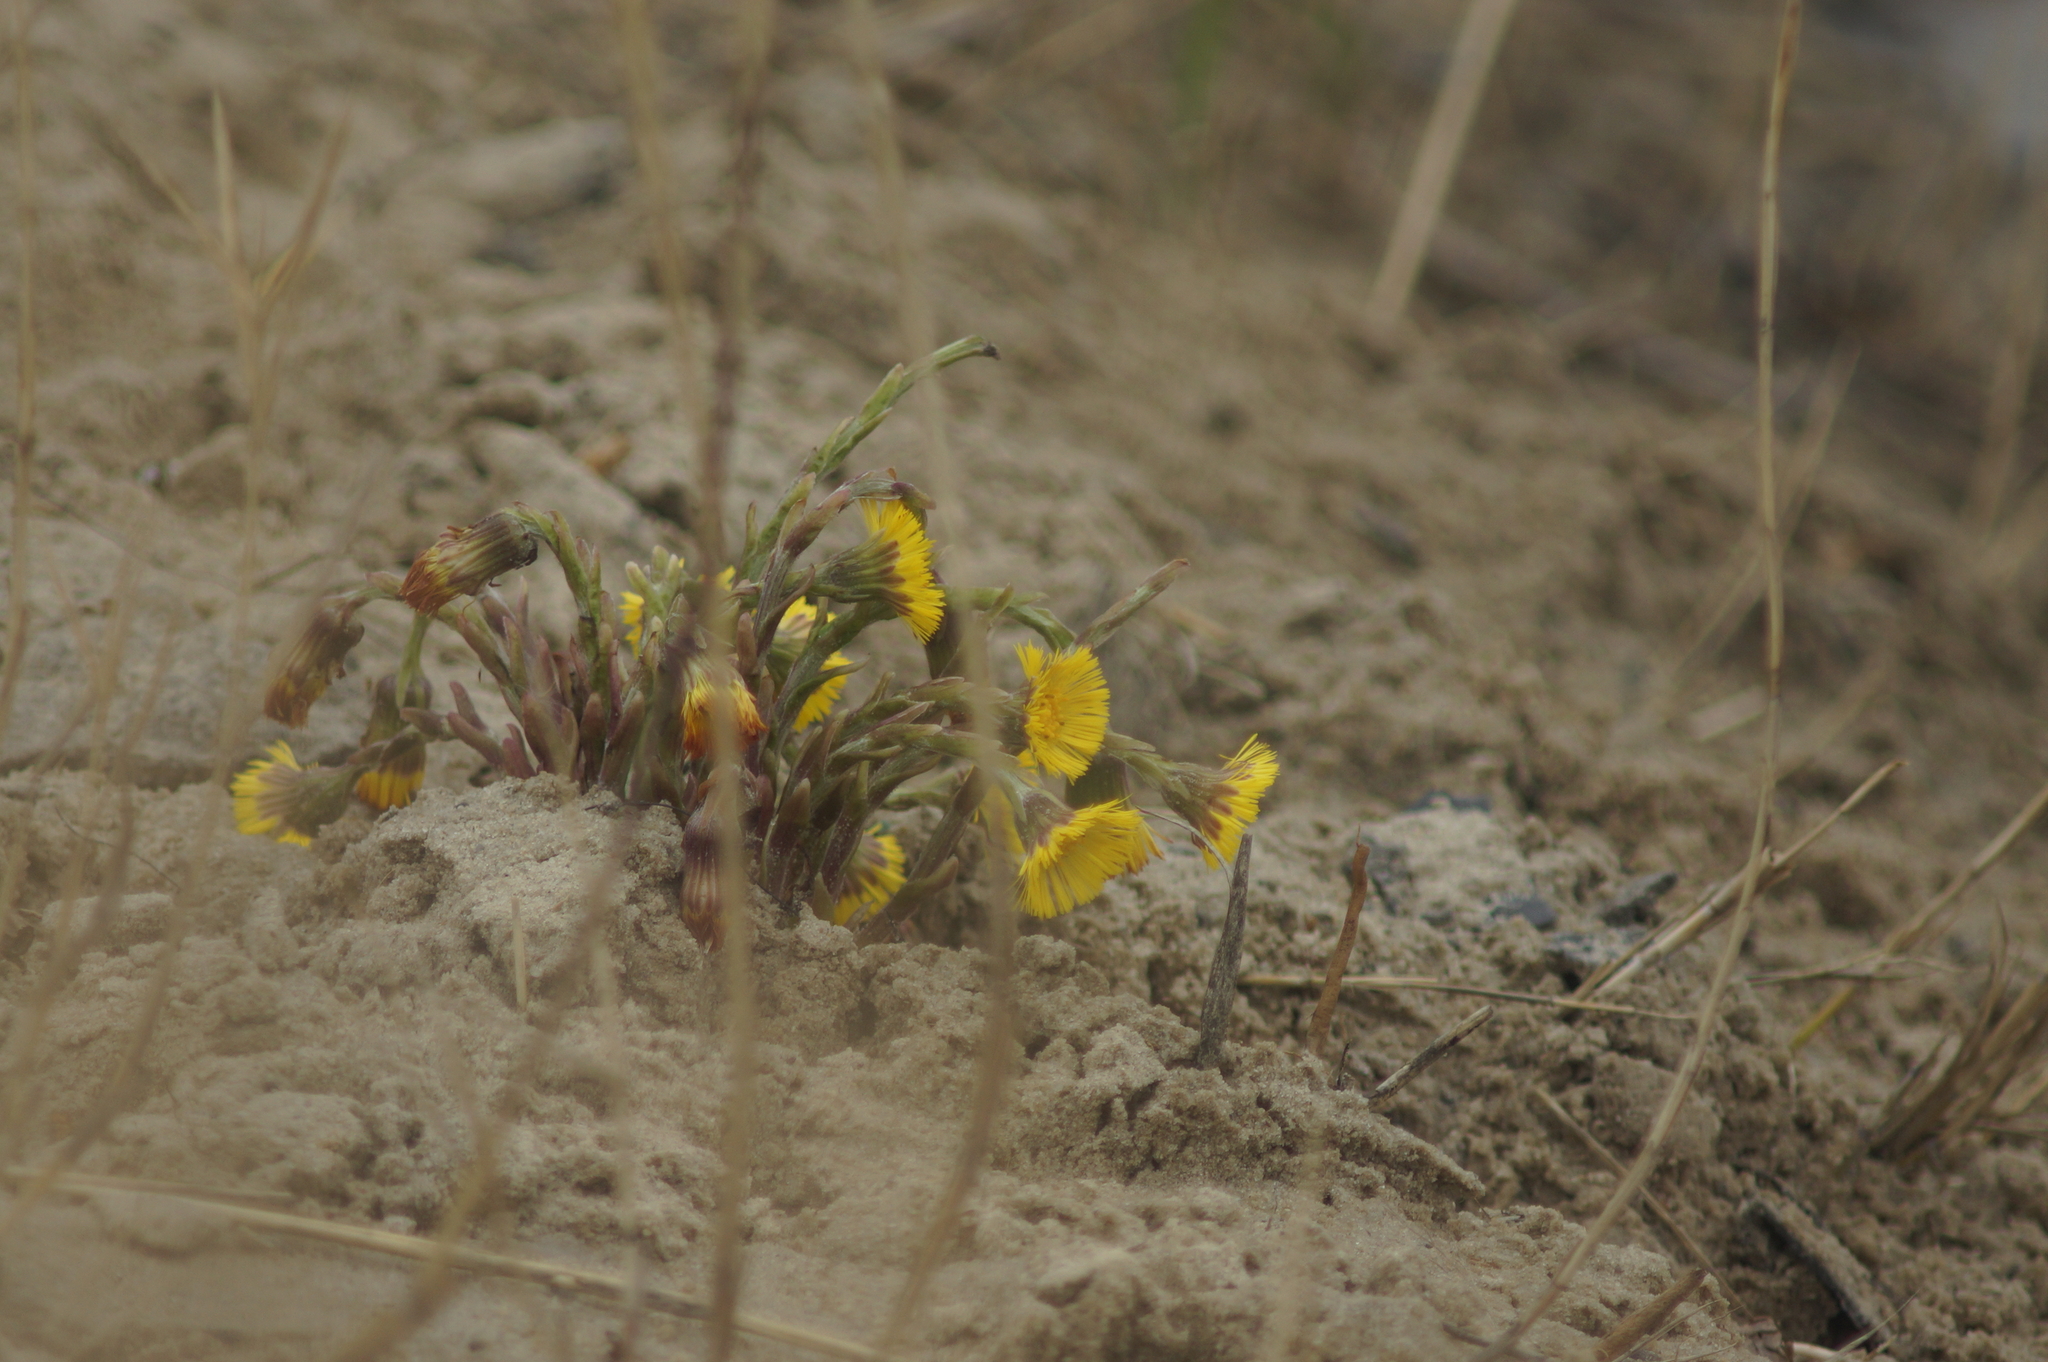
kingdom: Plantae
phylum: Tracheophyta
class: Magnoliopsida
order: Asterales
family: Asteraceae
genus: Tussilago
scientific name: Tussilago farfara
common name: Coltsfoot
